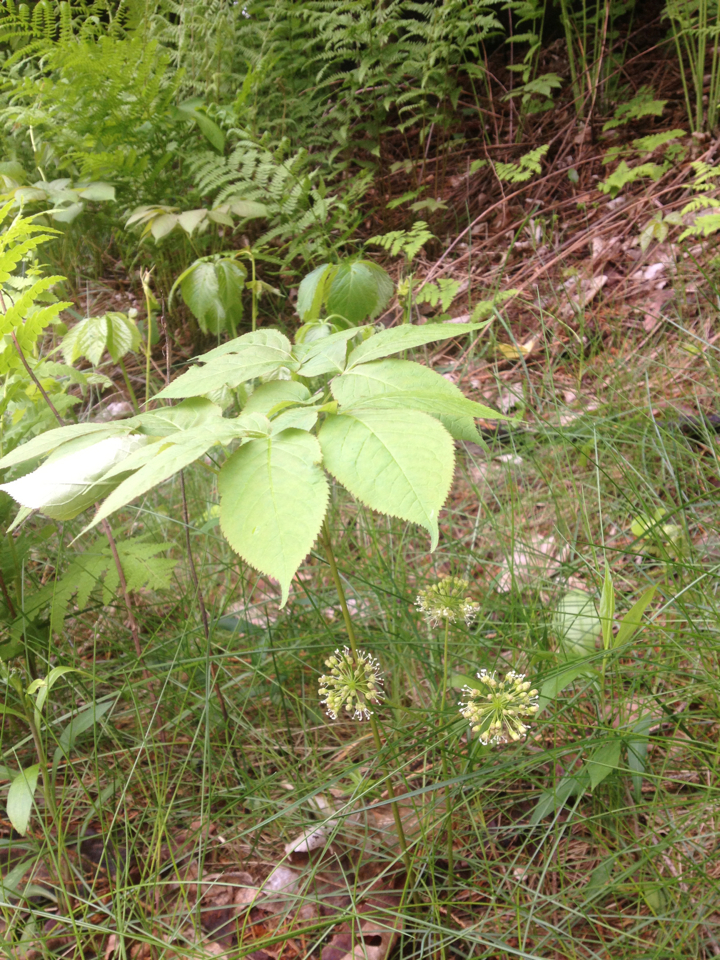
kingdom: Plantae
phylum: Tracheophyta
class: Magnoliopsida
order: Apiales
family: Araliaceae
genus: Aralia
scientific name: Aralia nudicaulis
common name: Wild sarsaparilla
